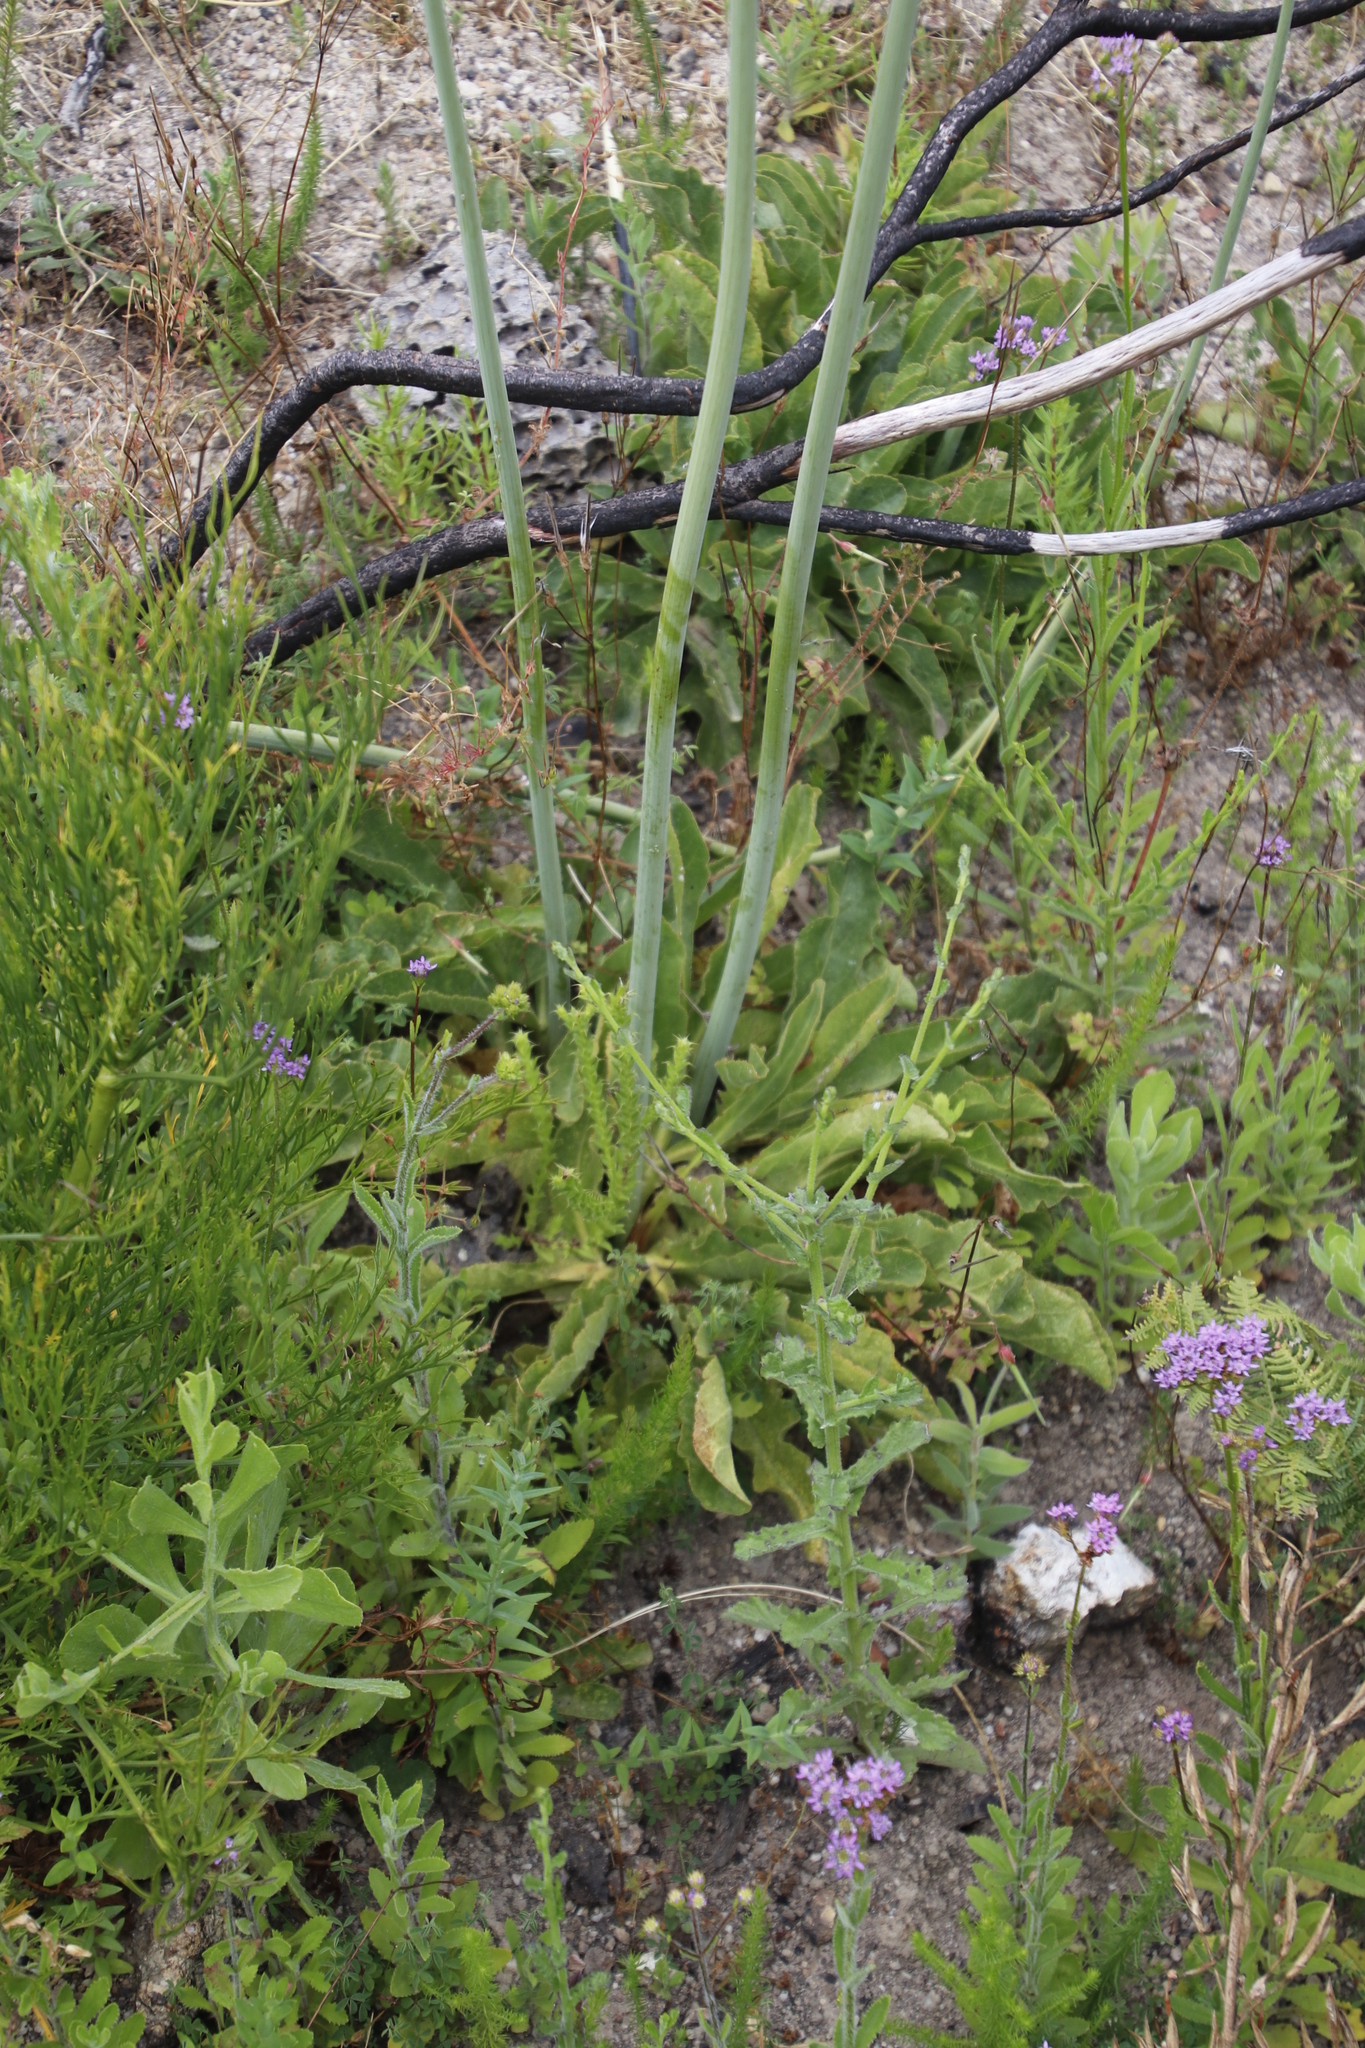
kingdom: Plantae
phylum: Tracheophyta
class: Magnoliopsida
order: Apiales
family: Apiaceae
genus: Lichtensteinia
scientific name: Lichtensteinia trifida
